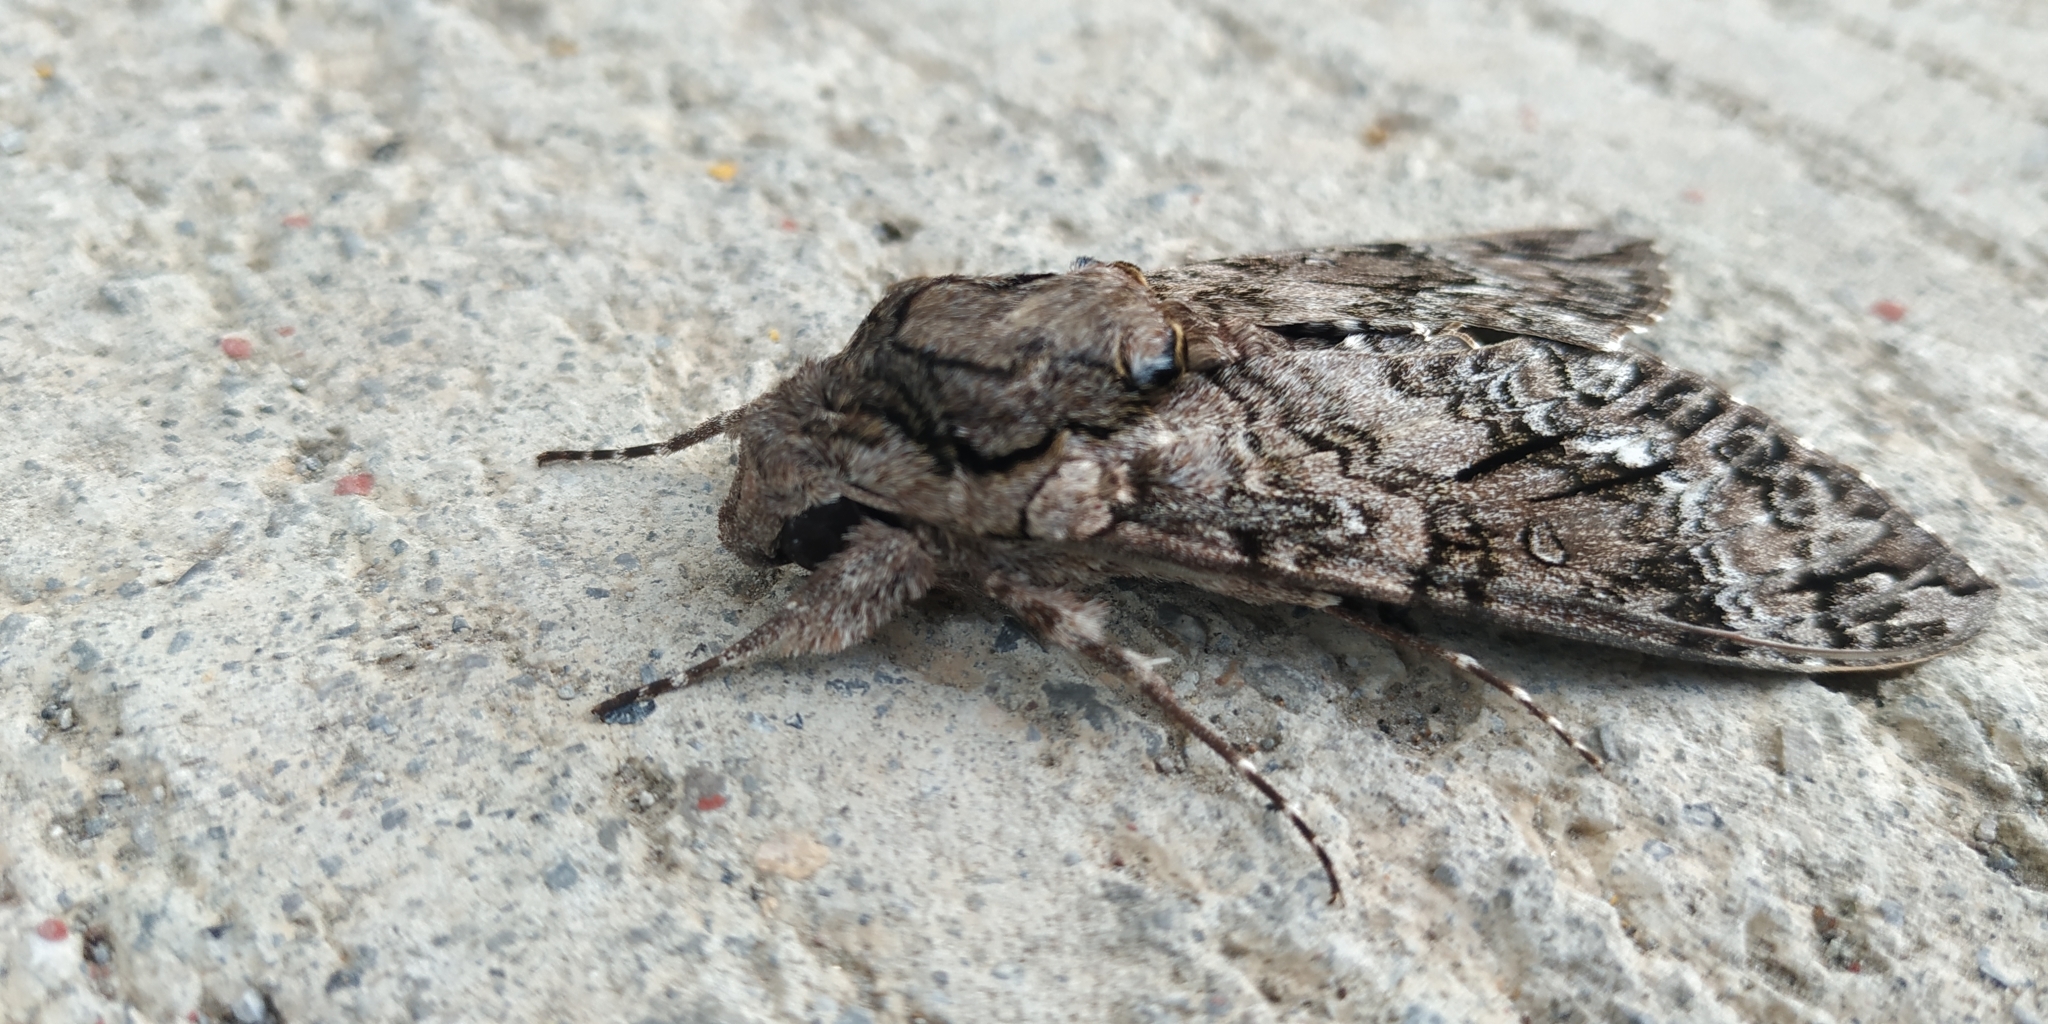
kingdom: Animalia
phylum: Arthropoda
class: Insecta
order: Lepidoptera
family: Sphingidae
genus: Agrius
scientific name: Agrius cingulata
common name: Pink-spotted hawkmoth
